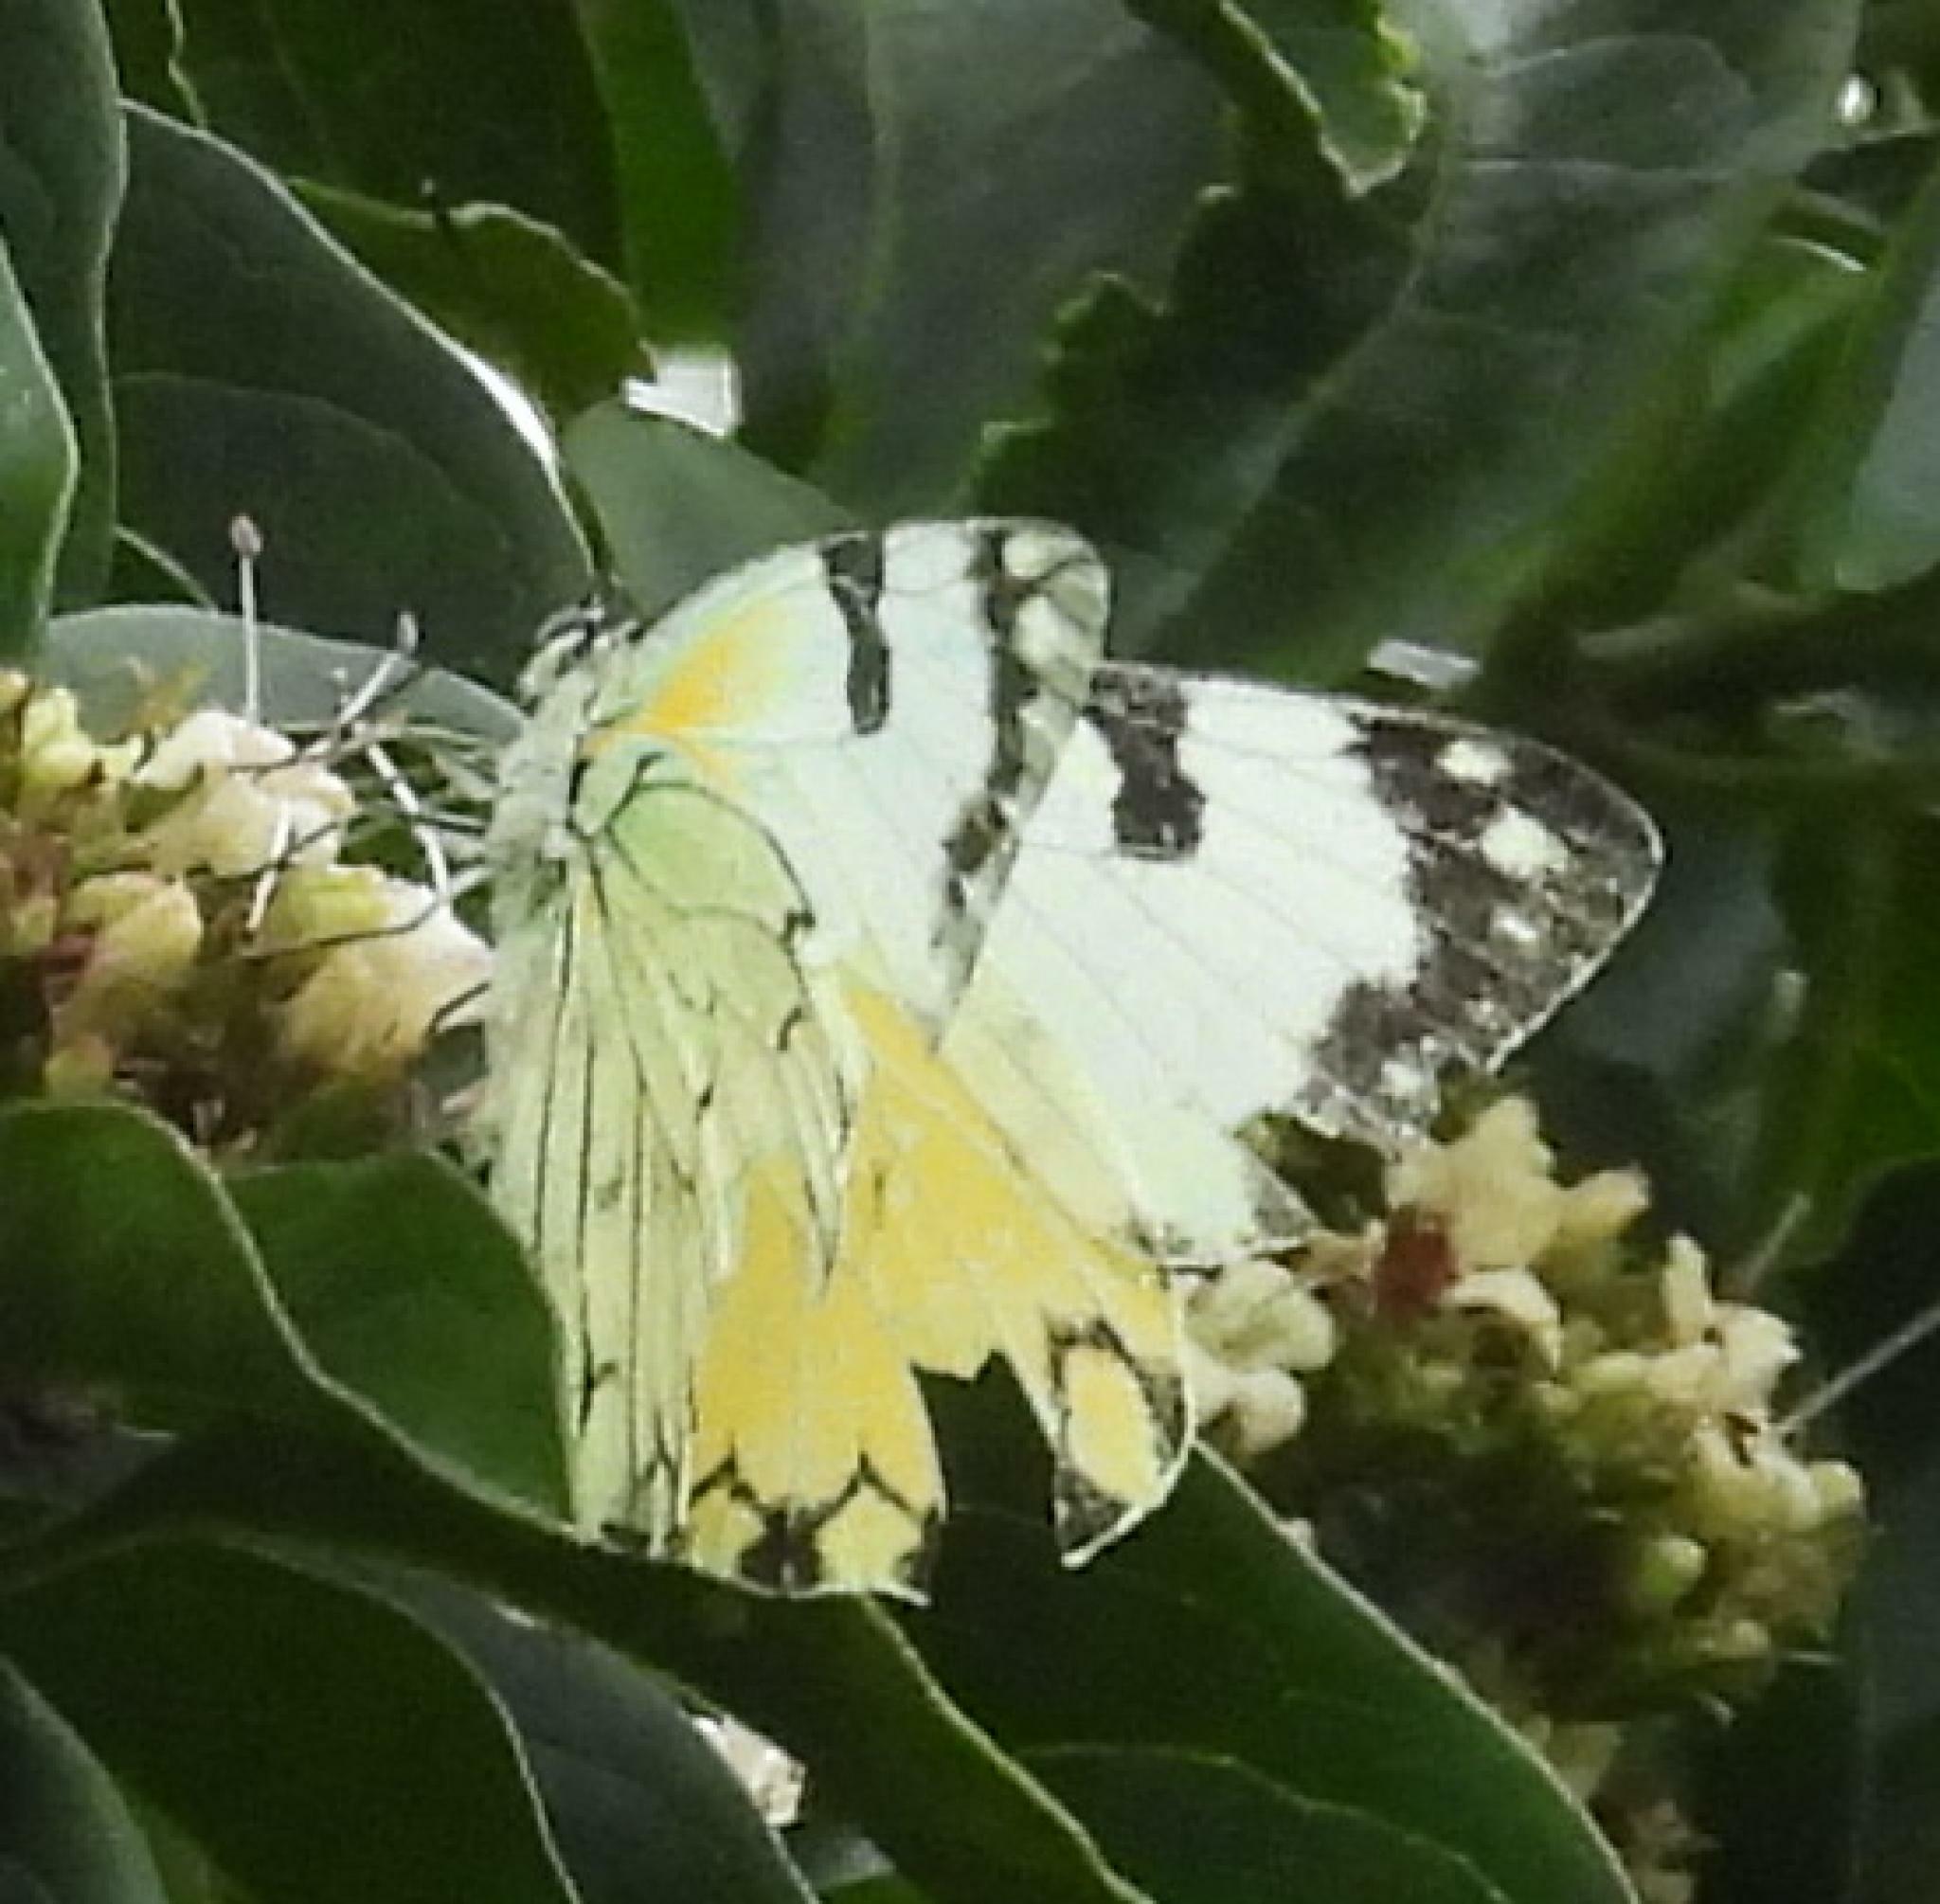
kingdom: Animalia
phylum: Arthropoda
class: Insecta
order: Lepidoptera
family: Pieridae
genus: Belenois
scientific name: Belenois zochalia
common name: Forest caper white
